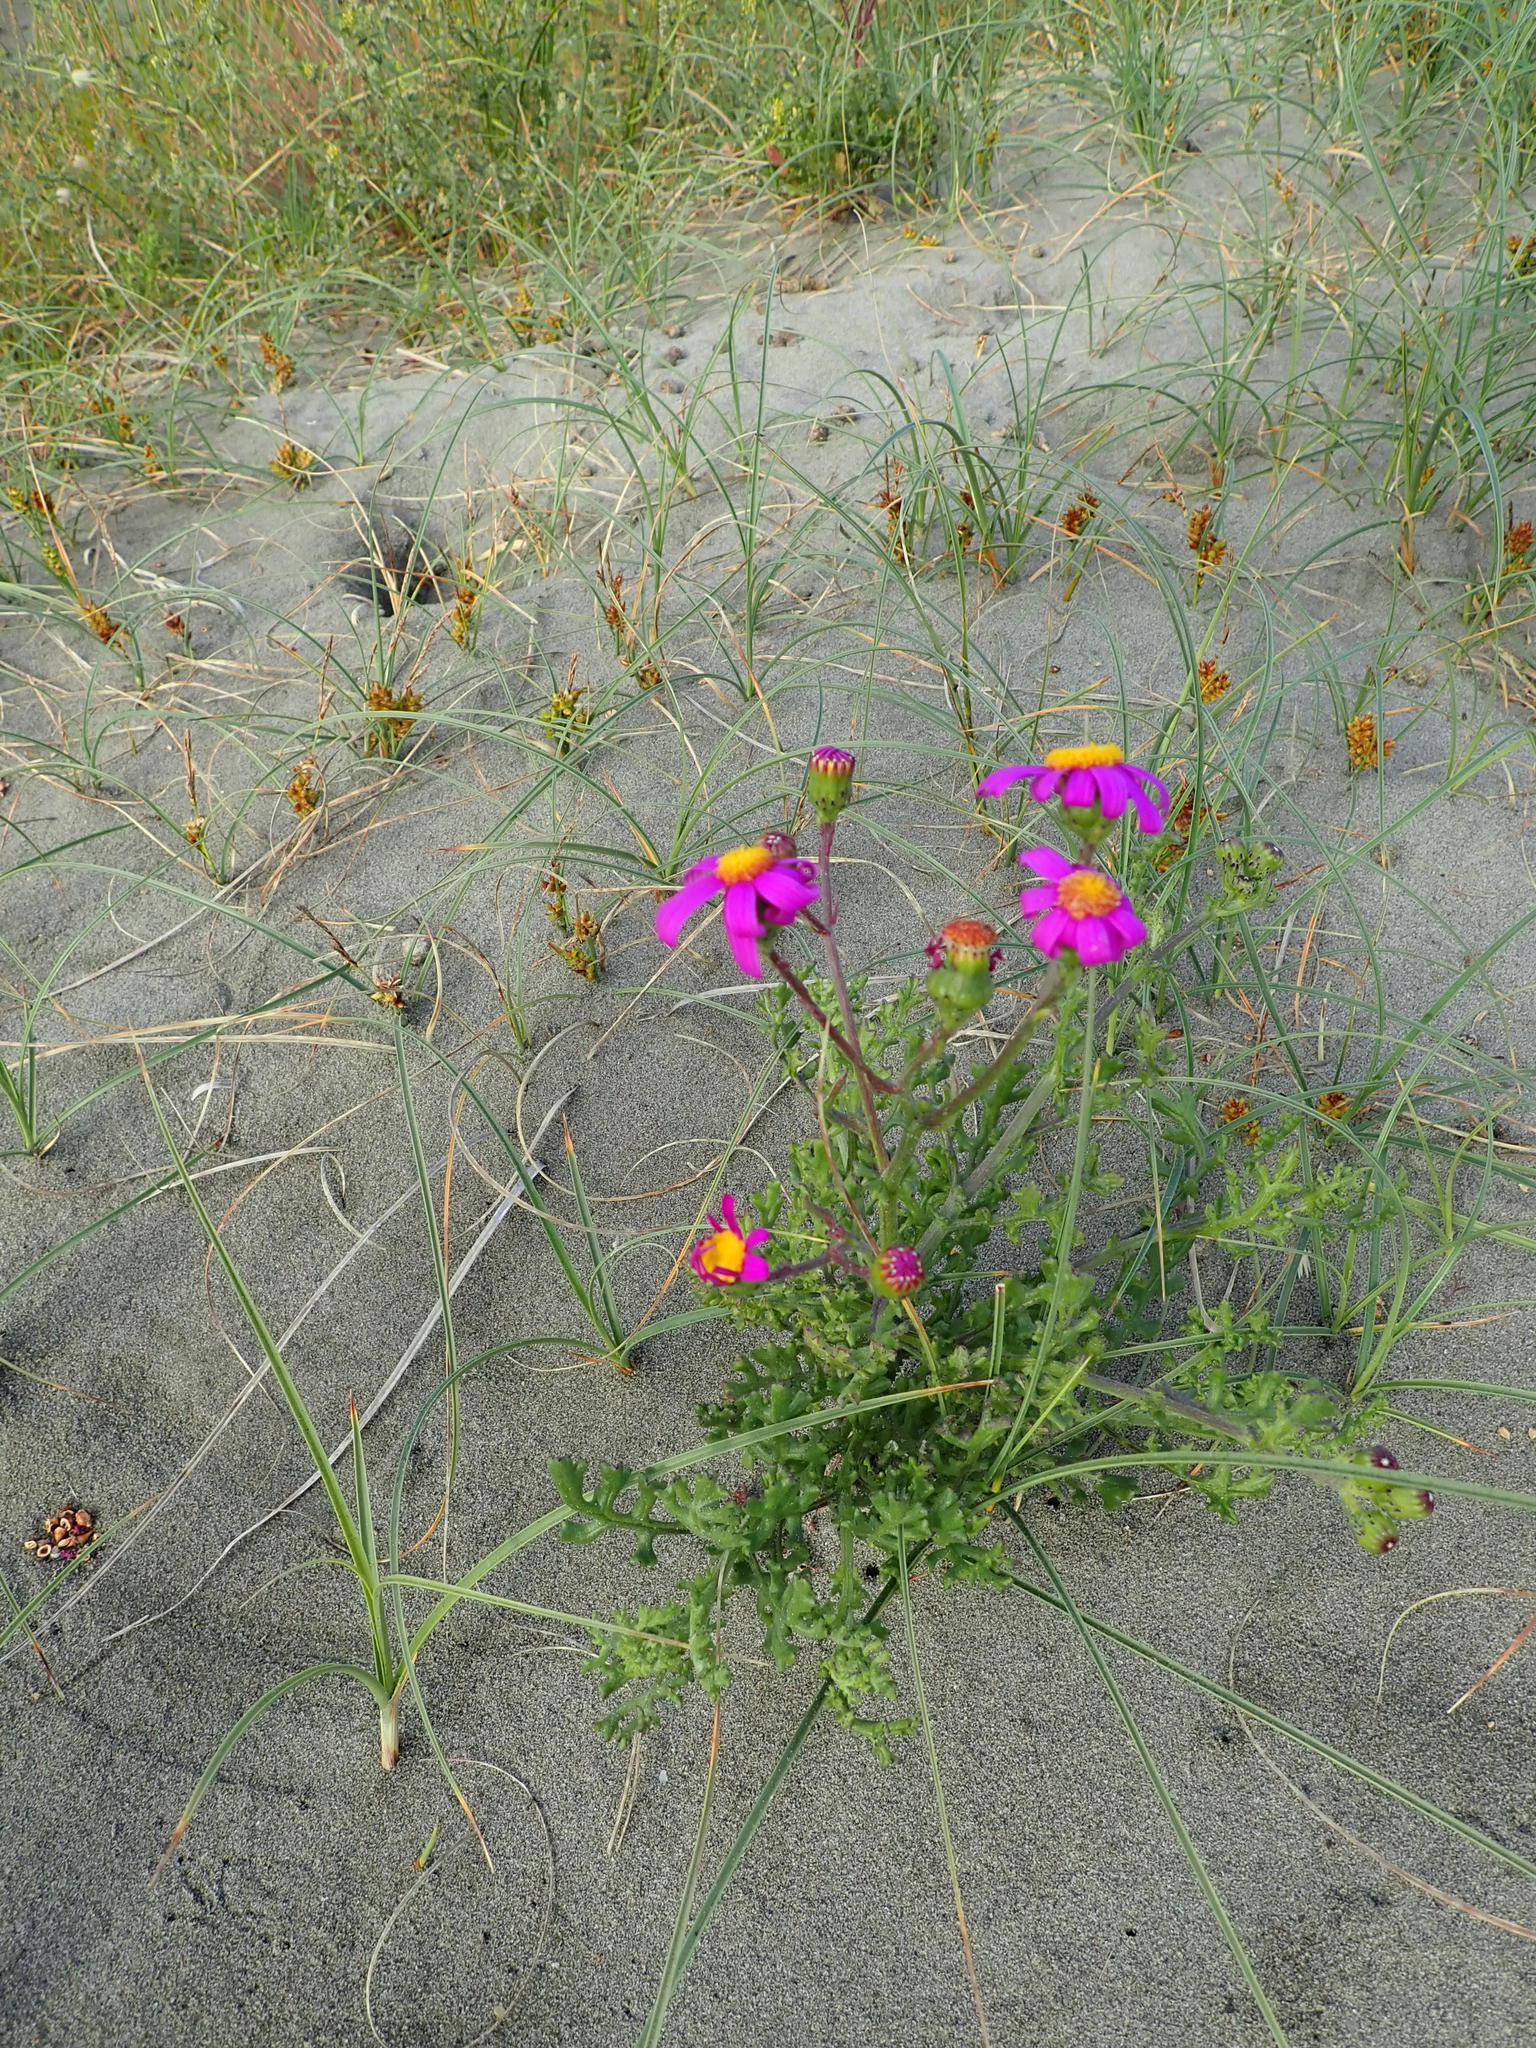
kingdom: Plantae
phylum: Tracheophyta
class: Magnoliopsida
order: Asterales
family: Asteraceae
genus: Senecio
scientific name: Senecio elegans
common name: Purple groundsel
